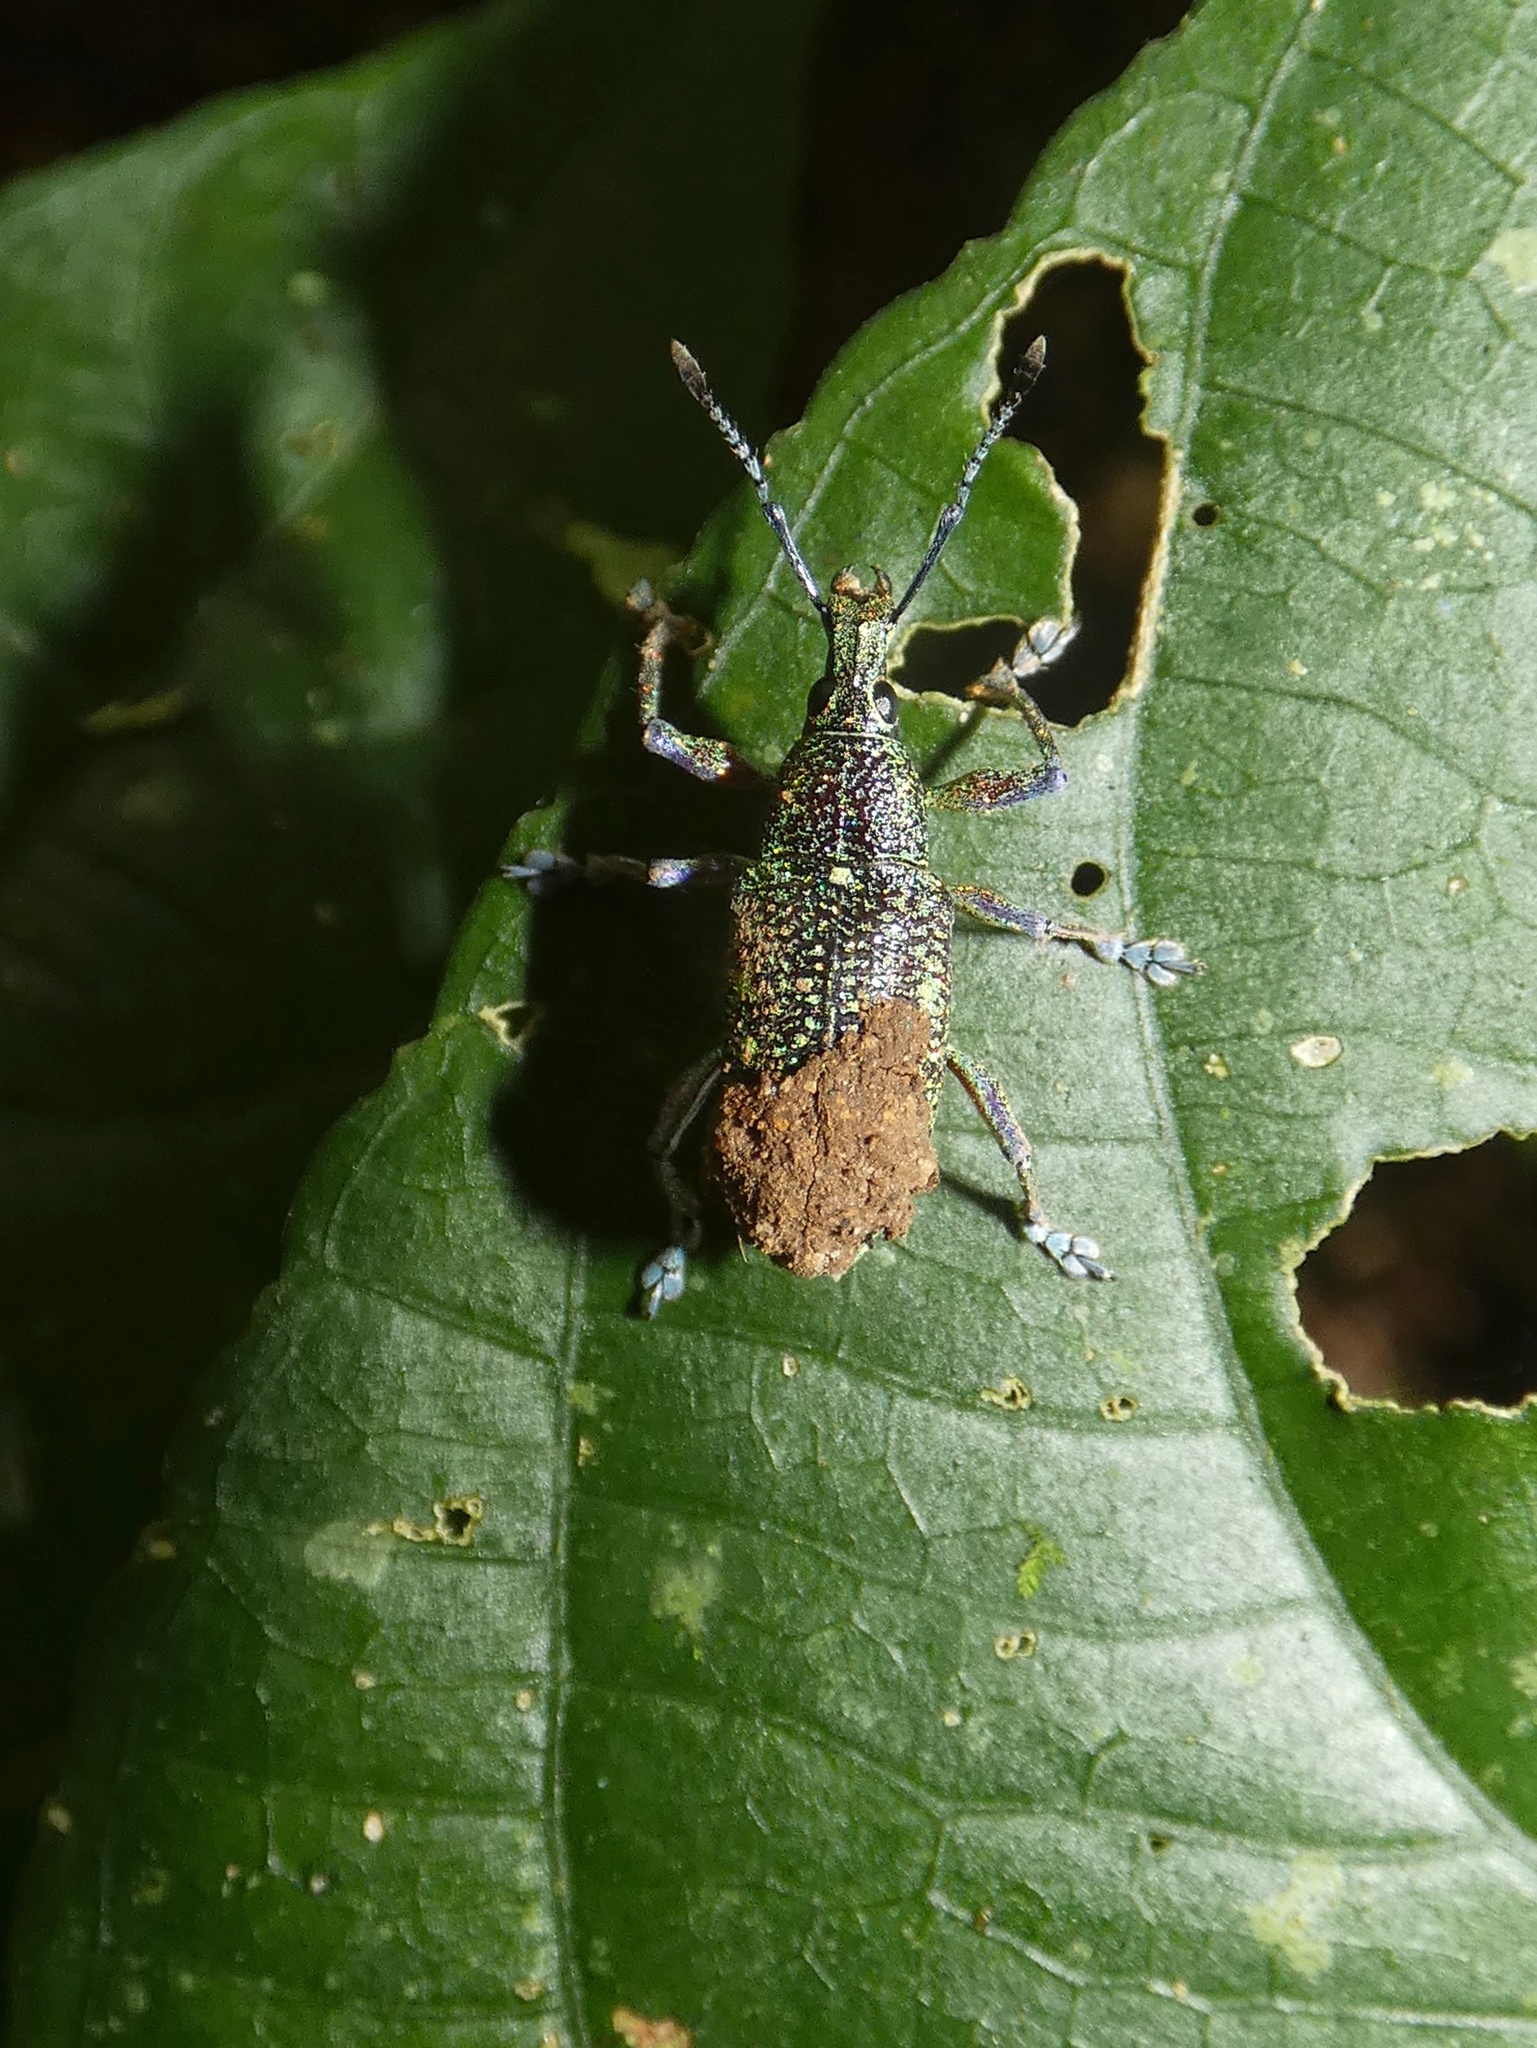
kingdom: Animalia
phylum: Arthropoda
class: Insecta
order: Coleoptera
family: Curculionidae
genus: Exophthalmus
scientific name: Exophthalmus jekelianus
